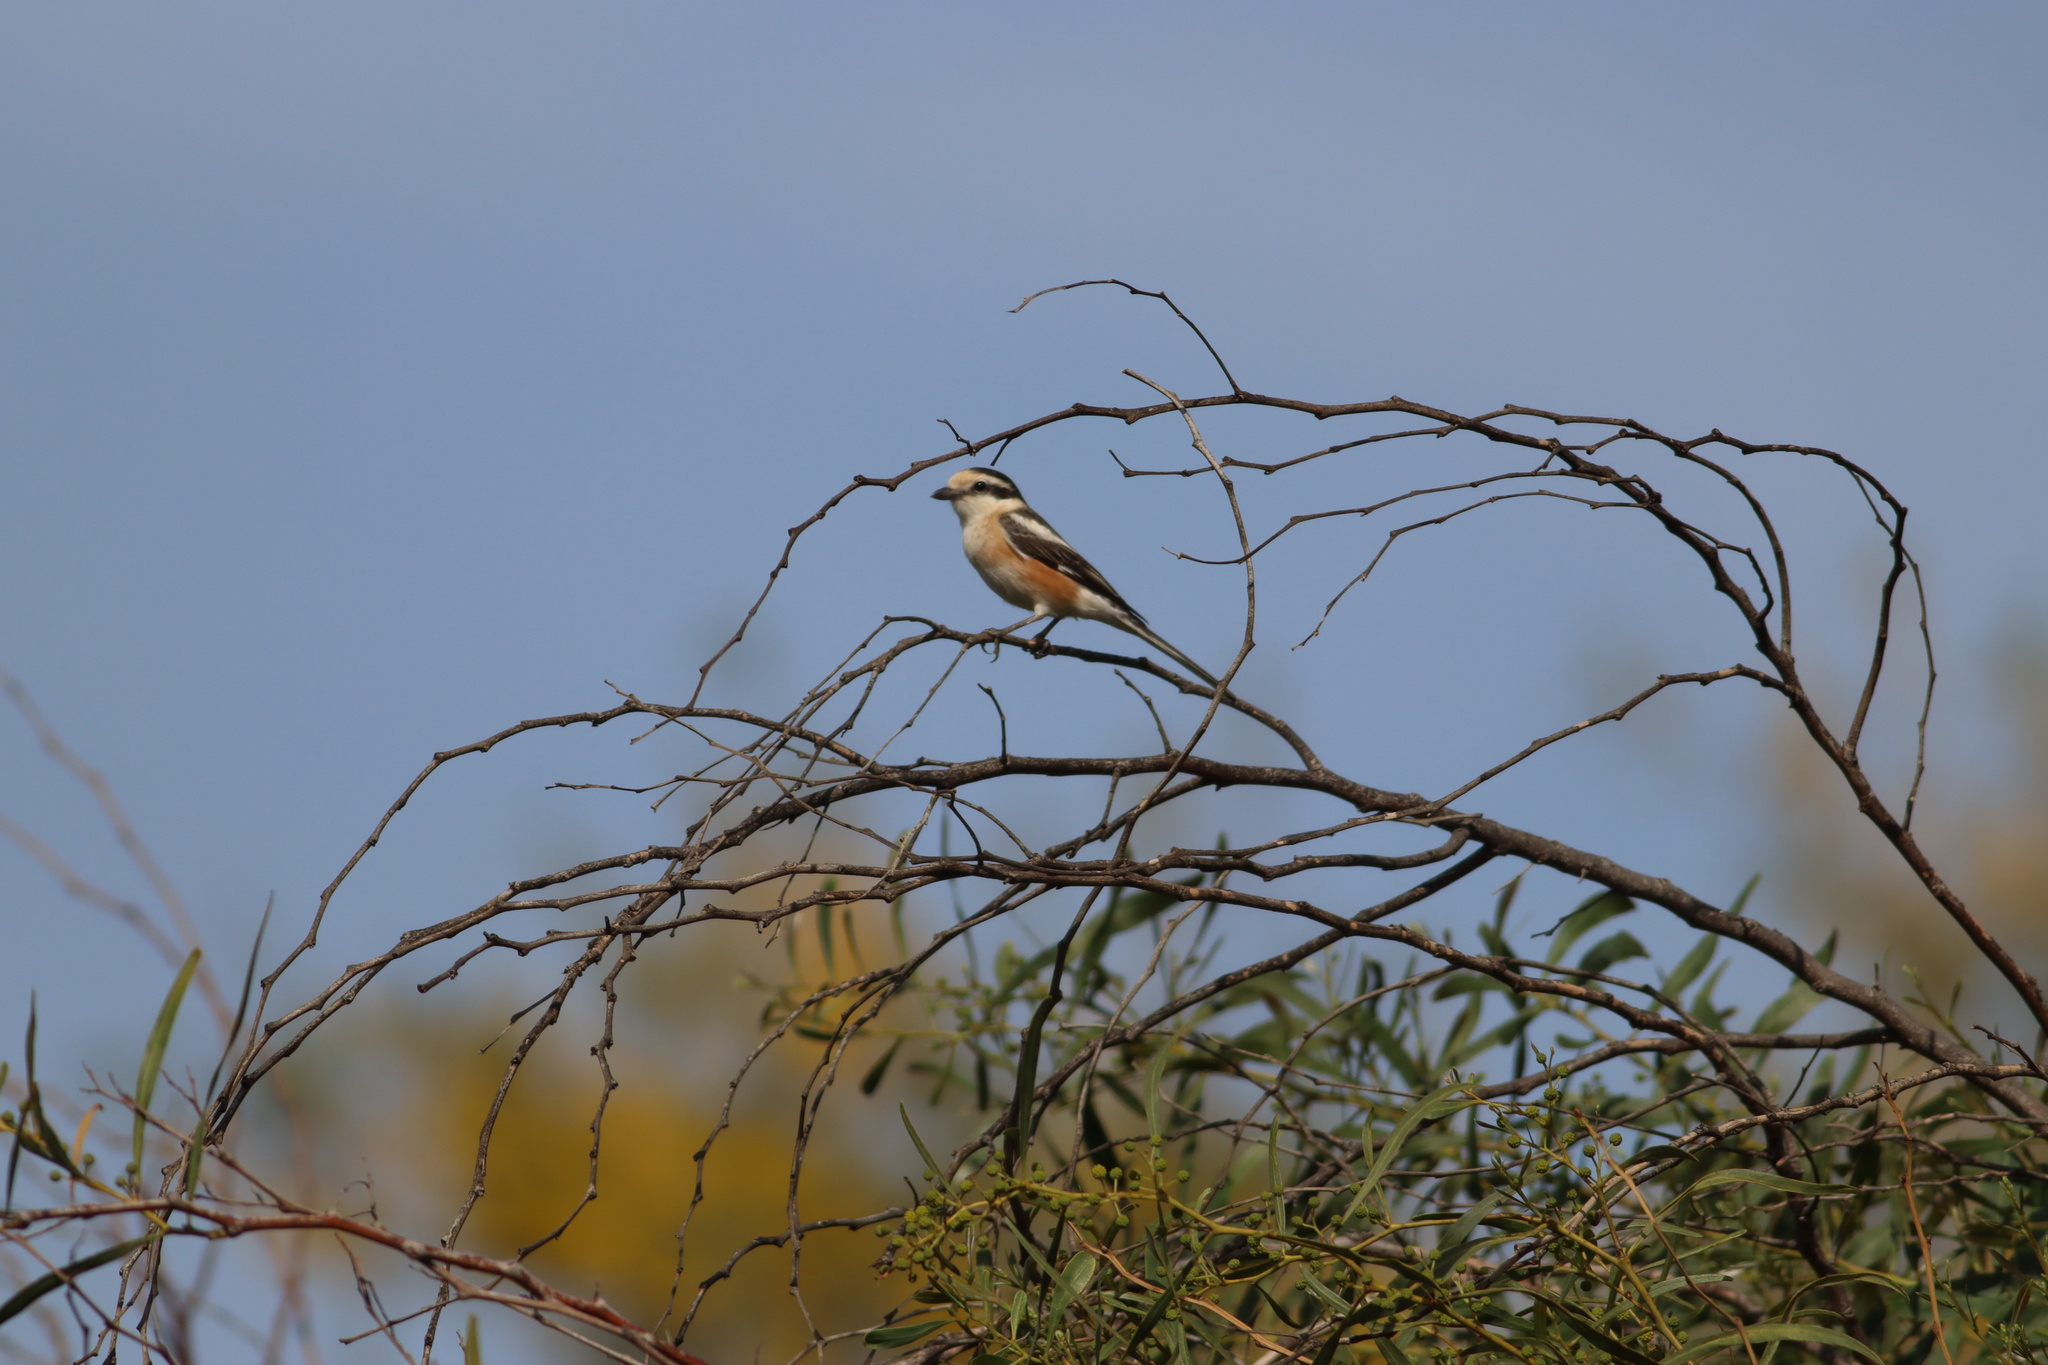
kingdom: Animalia
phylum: Chordata
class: Aves
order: Passeriformes
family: Laniidae
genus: Lanius
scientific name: Lanius nubicus
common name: Masked shrike
